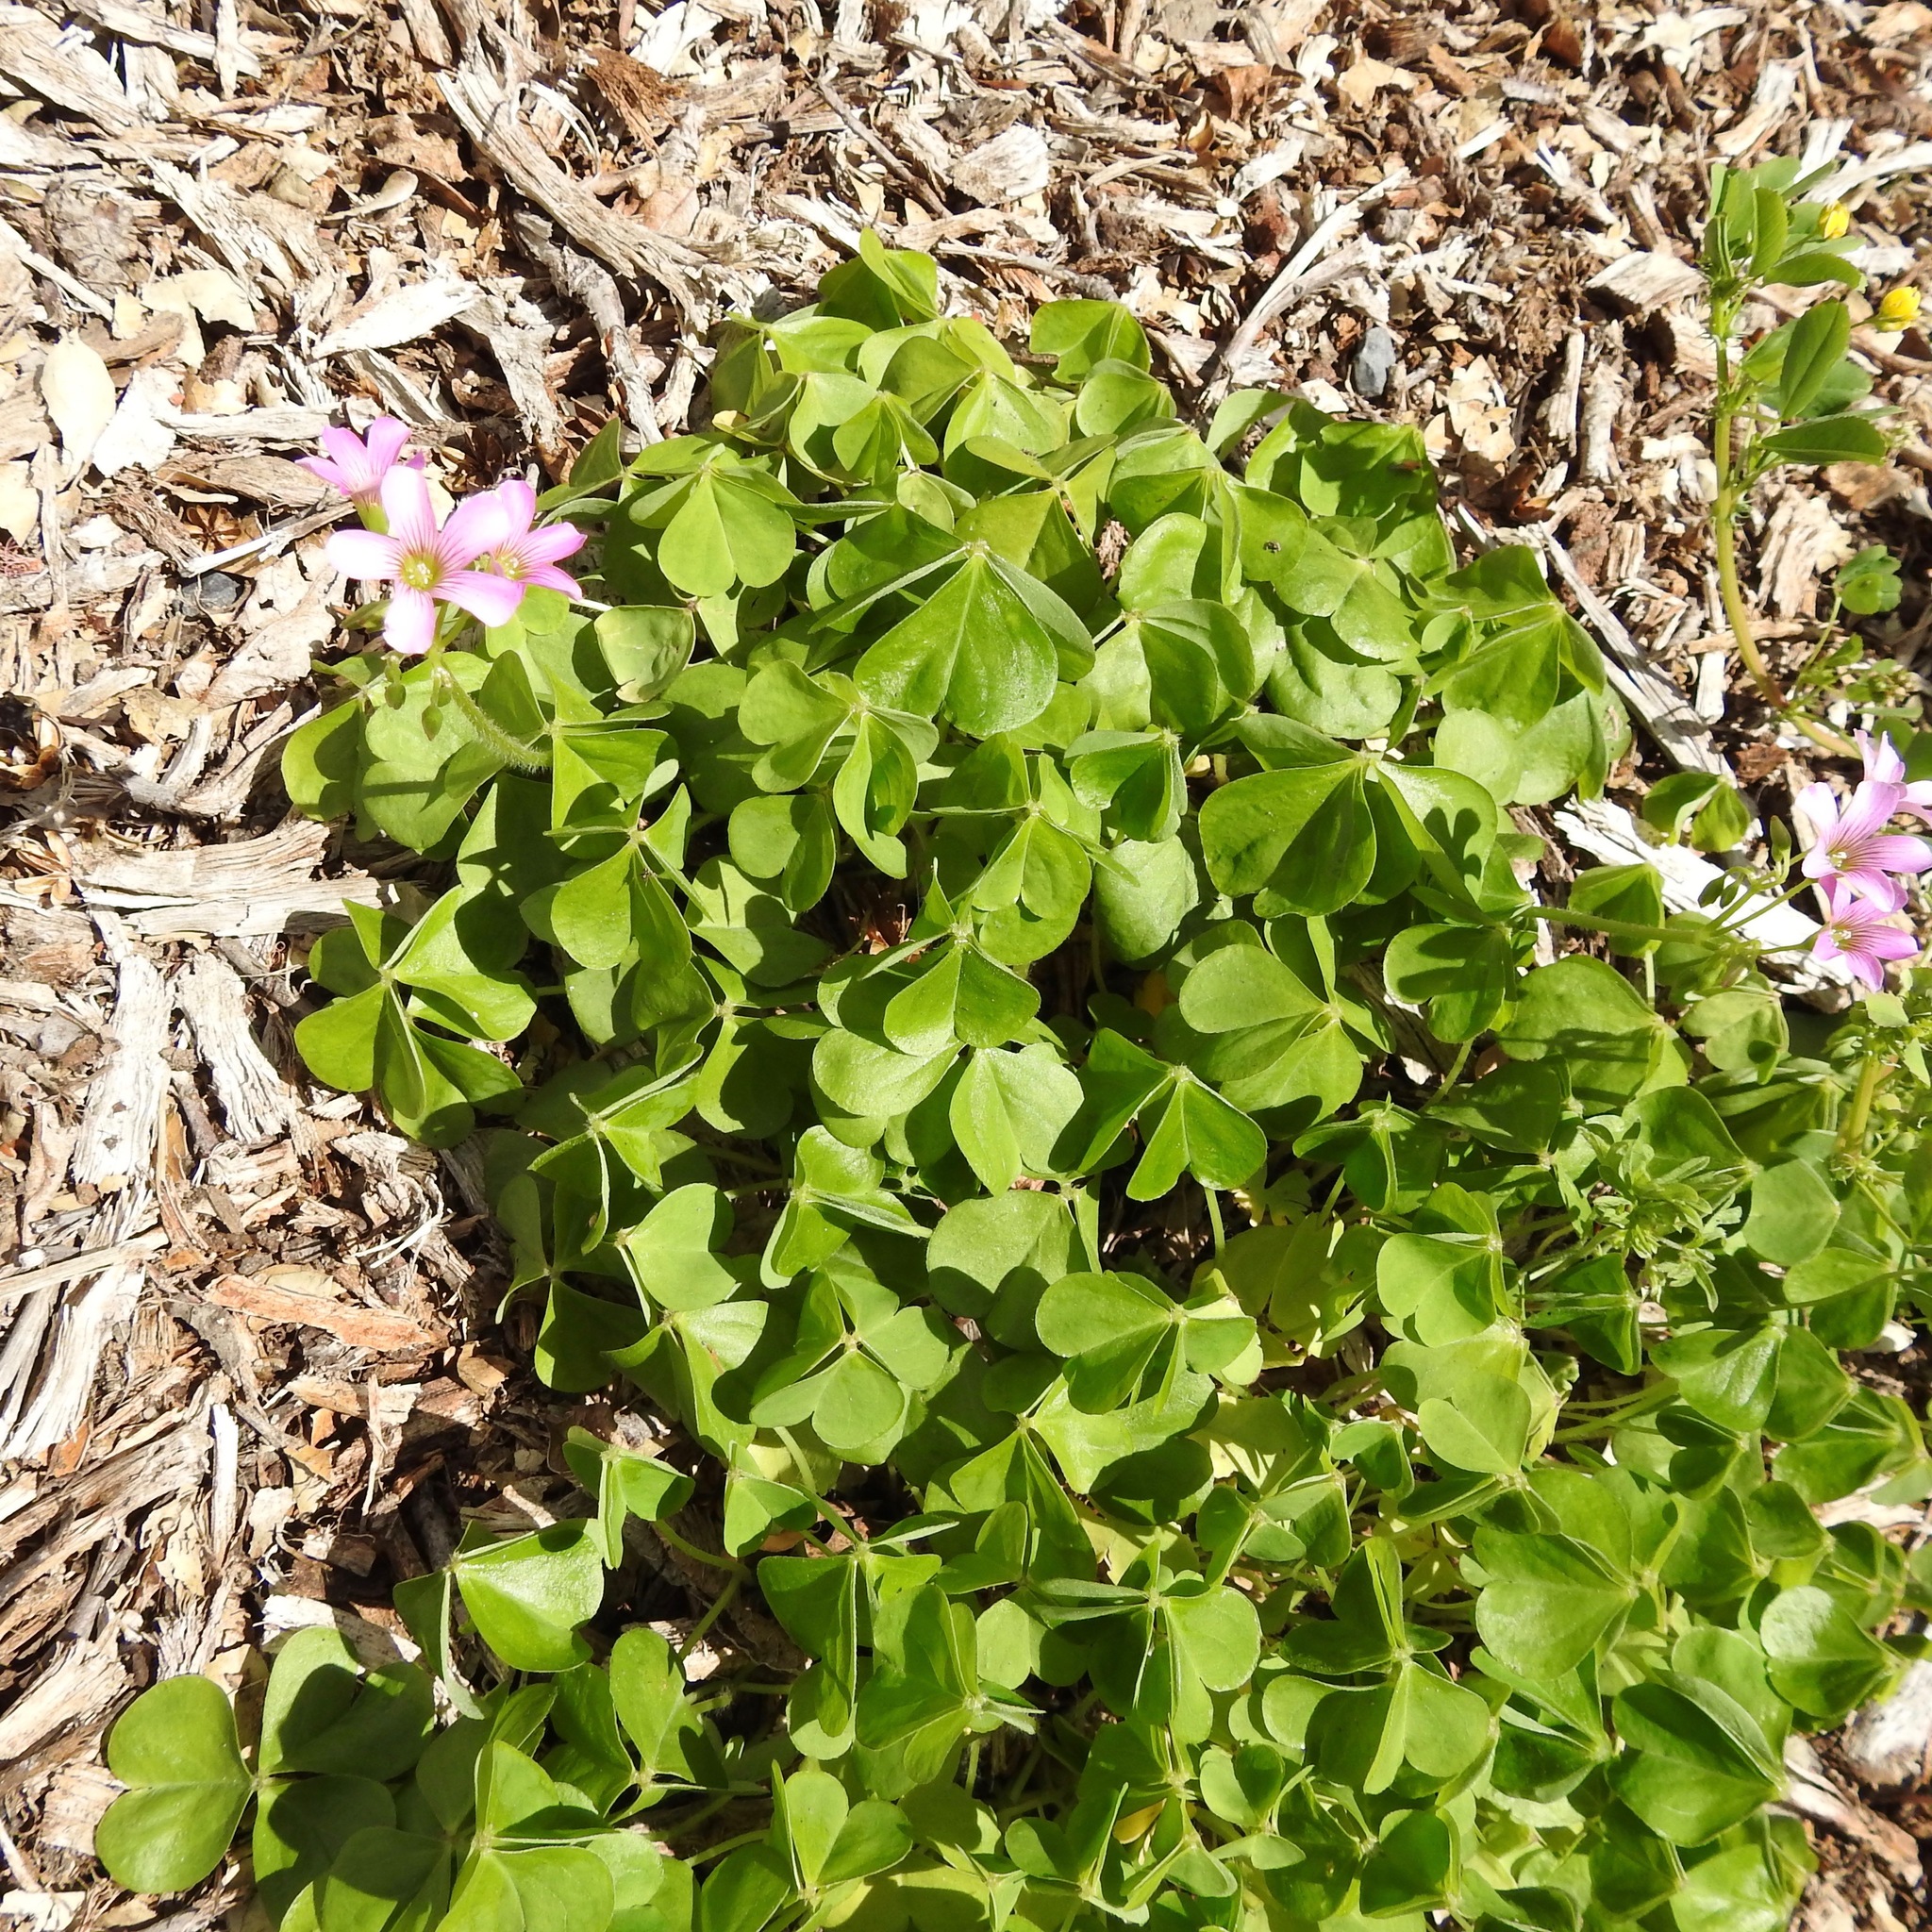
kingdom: Plantae
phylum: Tracheophyta
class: Magnoliopsida
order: Oxalidales
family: Oxalidaceae
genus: Oxalis
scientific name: Oxalis debilis
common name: Large-flowered pink-sorrel
